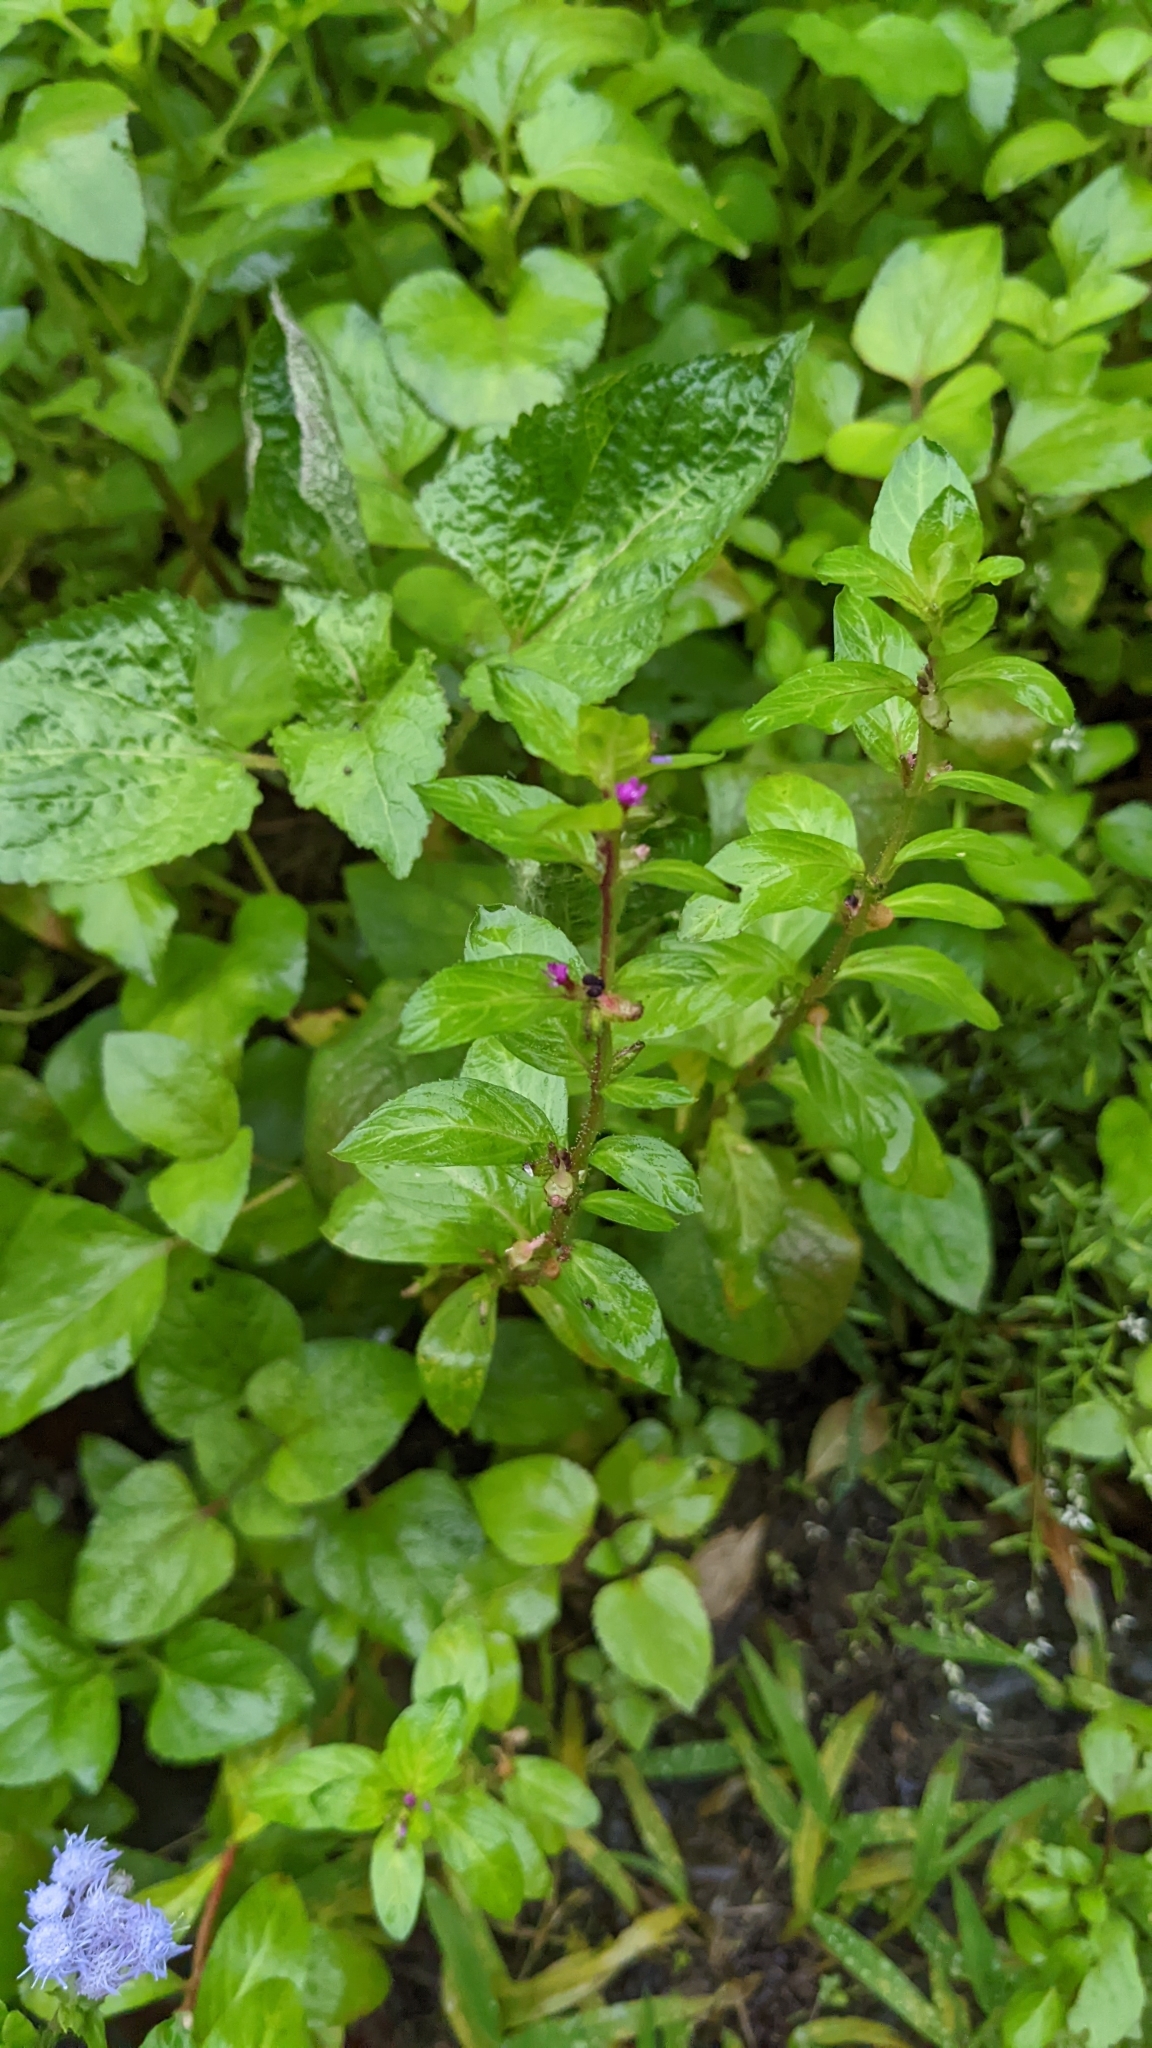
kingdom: Plantae
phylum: Tracheophyta
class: Magnoliopsida
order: Myrtales
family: Lythraceae
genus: Cuphea
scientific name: Cuphea carthagenensis
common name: Colombian waxweed
